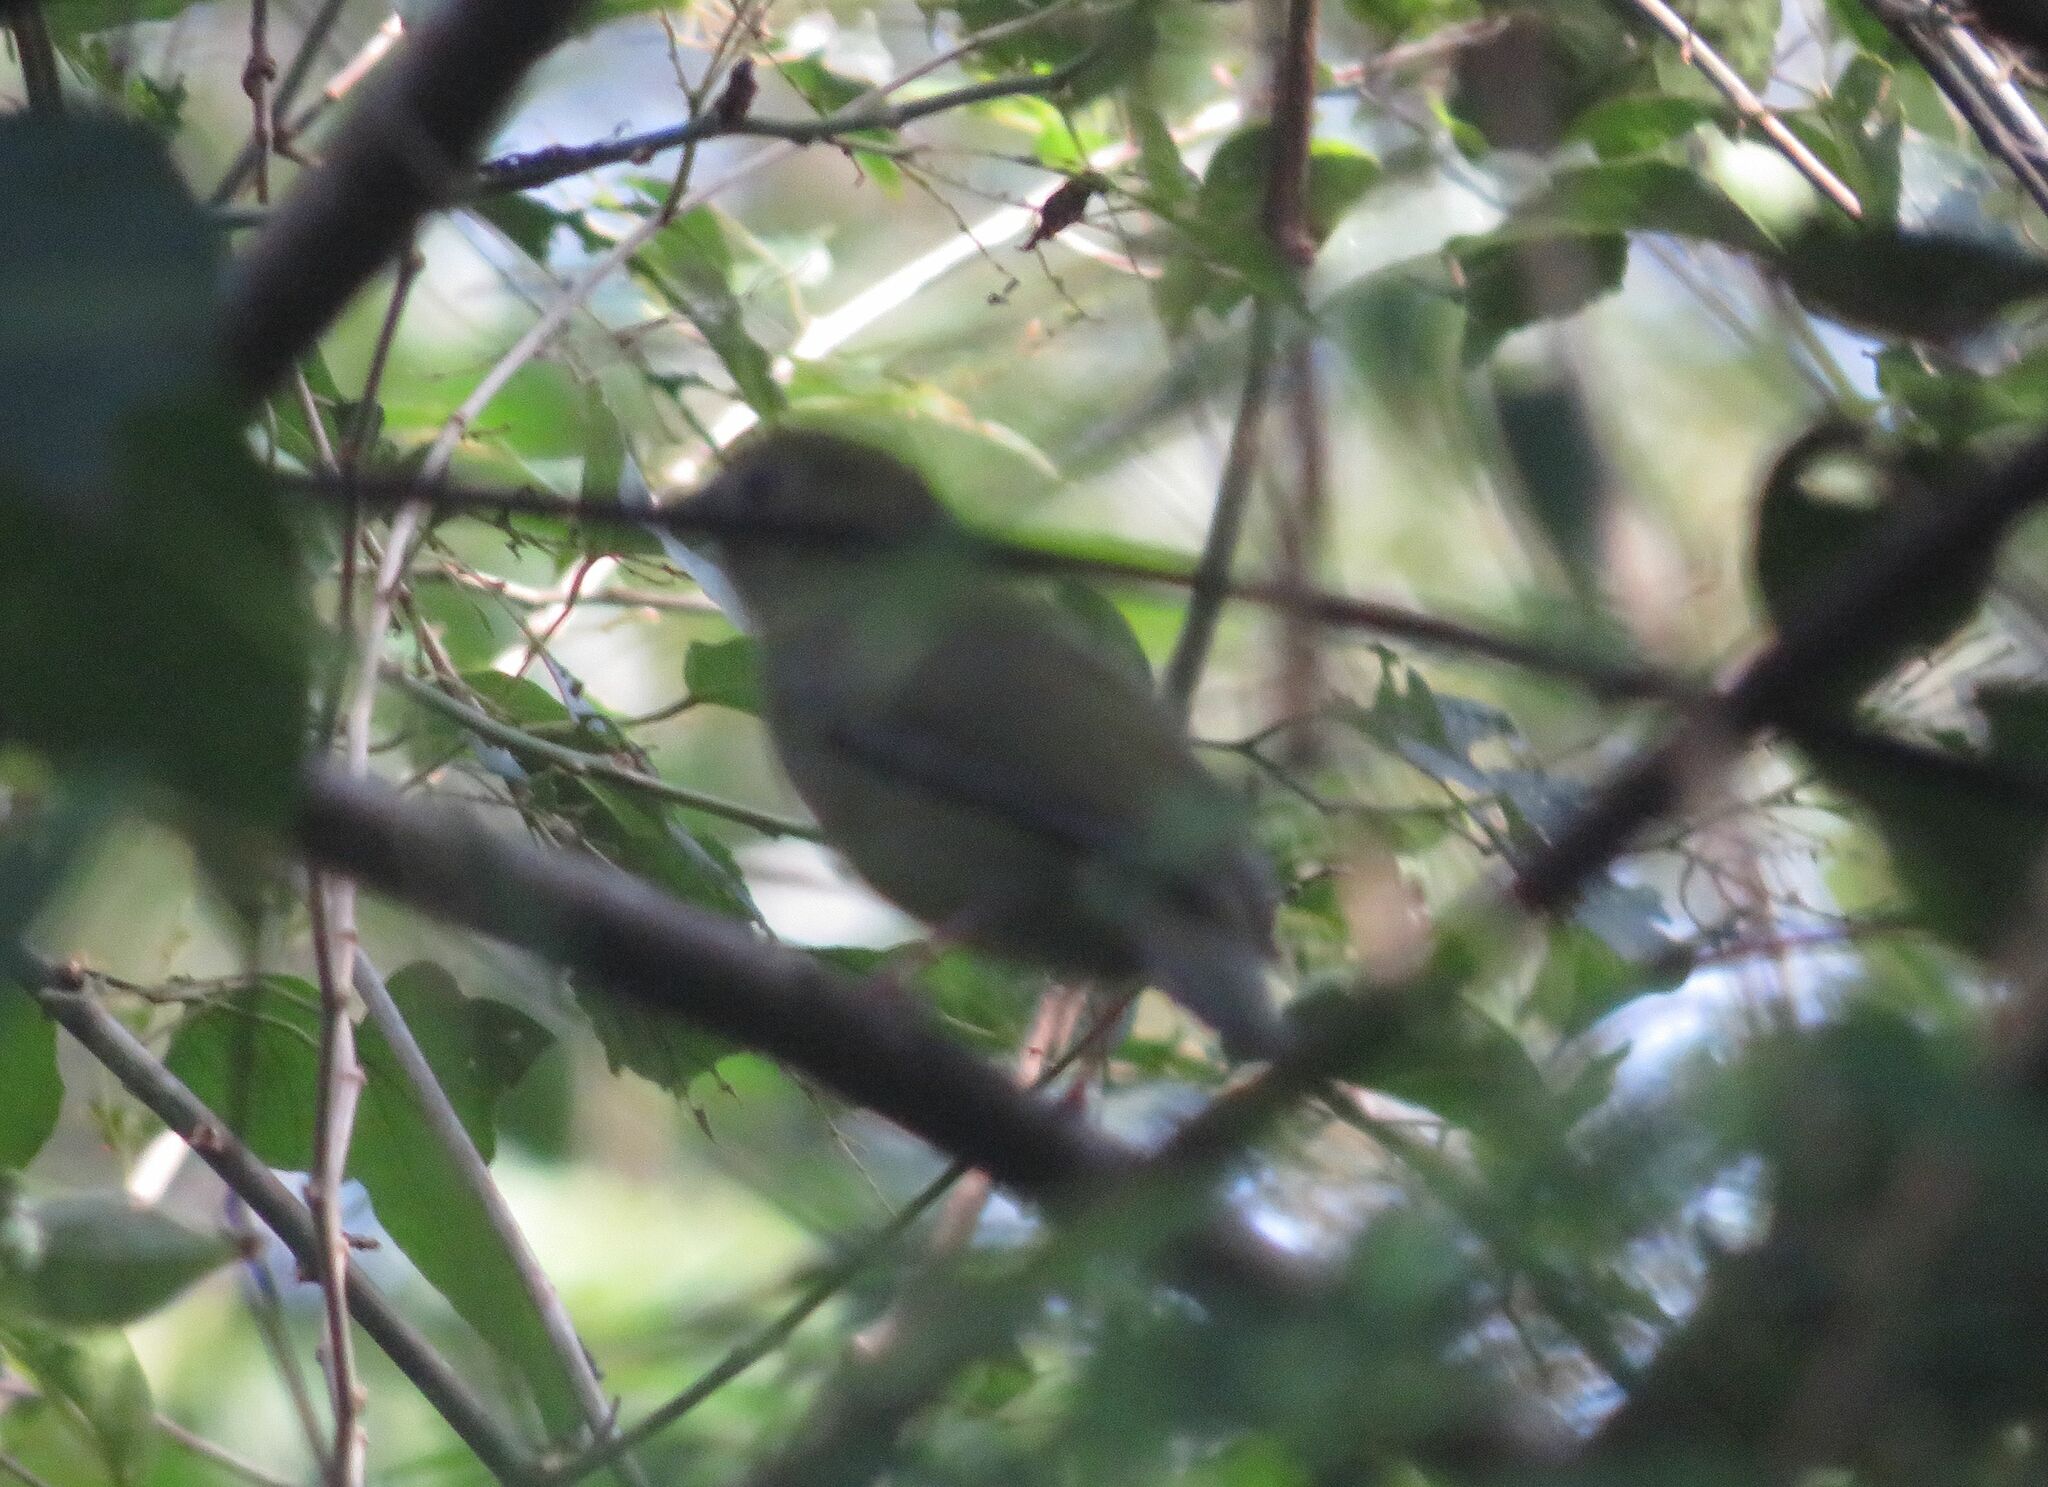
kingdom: Animalia
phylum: Chordata
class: Aves
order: Passeriformes
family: Pipridae
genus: Chiroxiphia
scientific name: Chiroxiphia caudata
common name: Blue manakin
